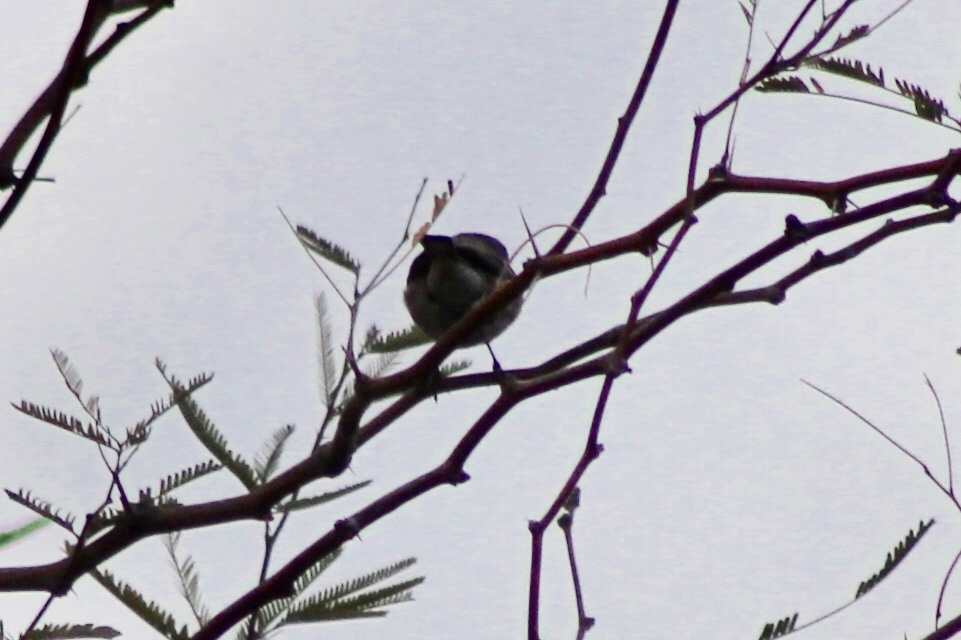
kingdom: Animalia
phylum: Chordata
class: Aves
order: Passeriformes
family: Parulidae
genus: Setophaga
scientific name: Setophaga auduboni
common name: Audubon's warbler
